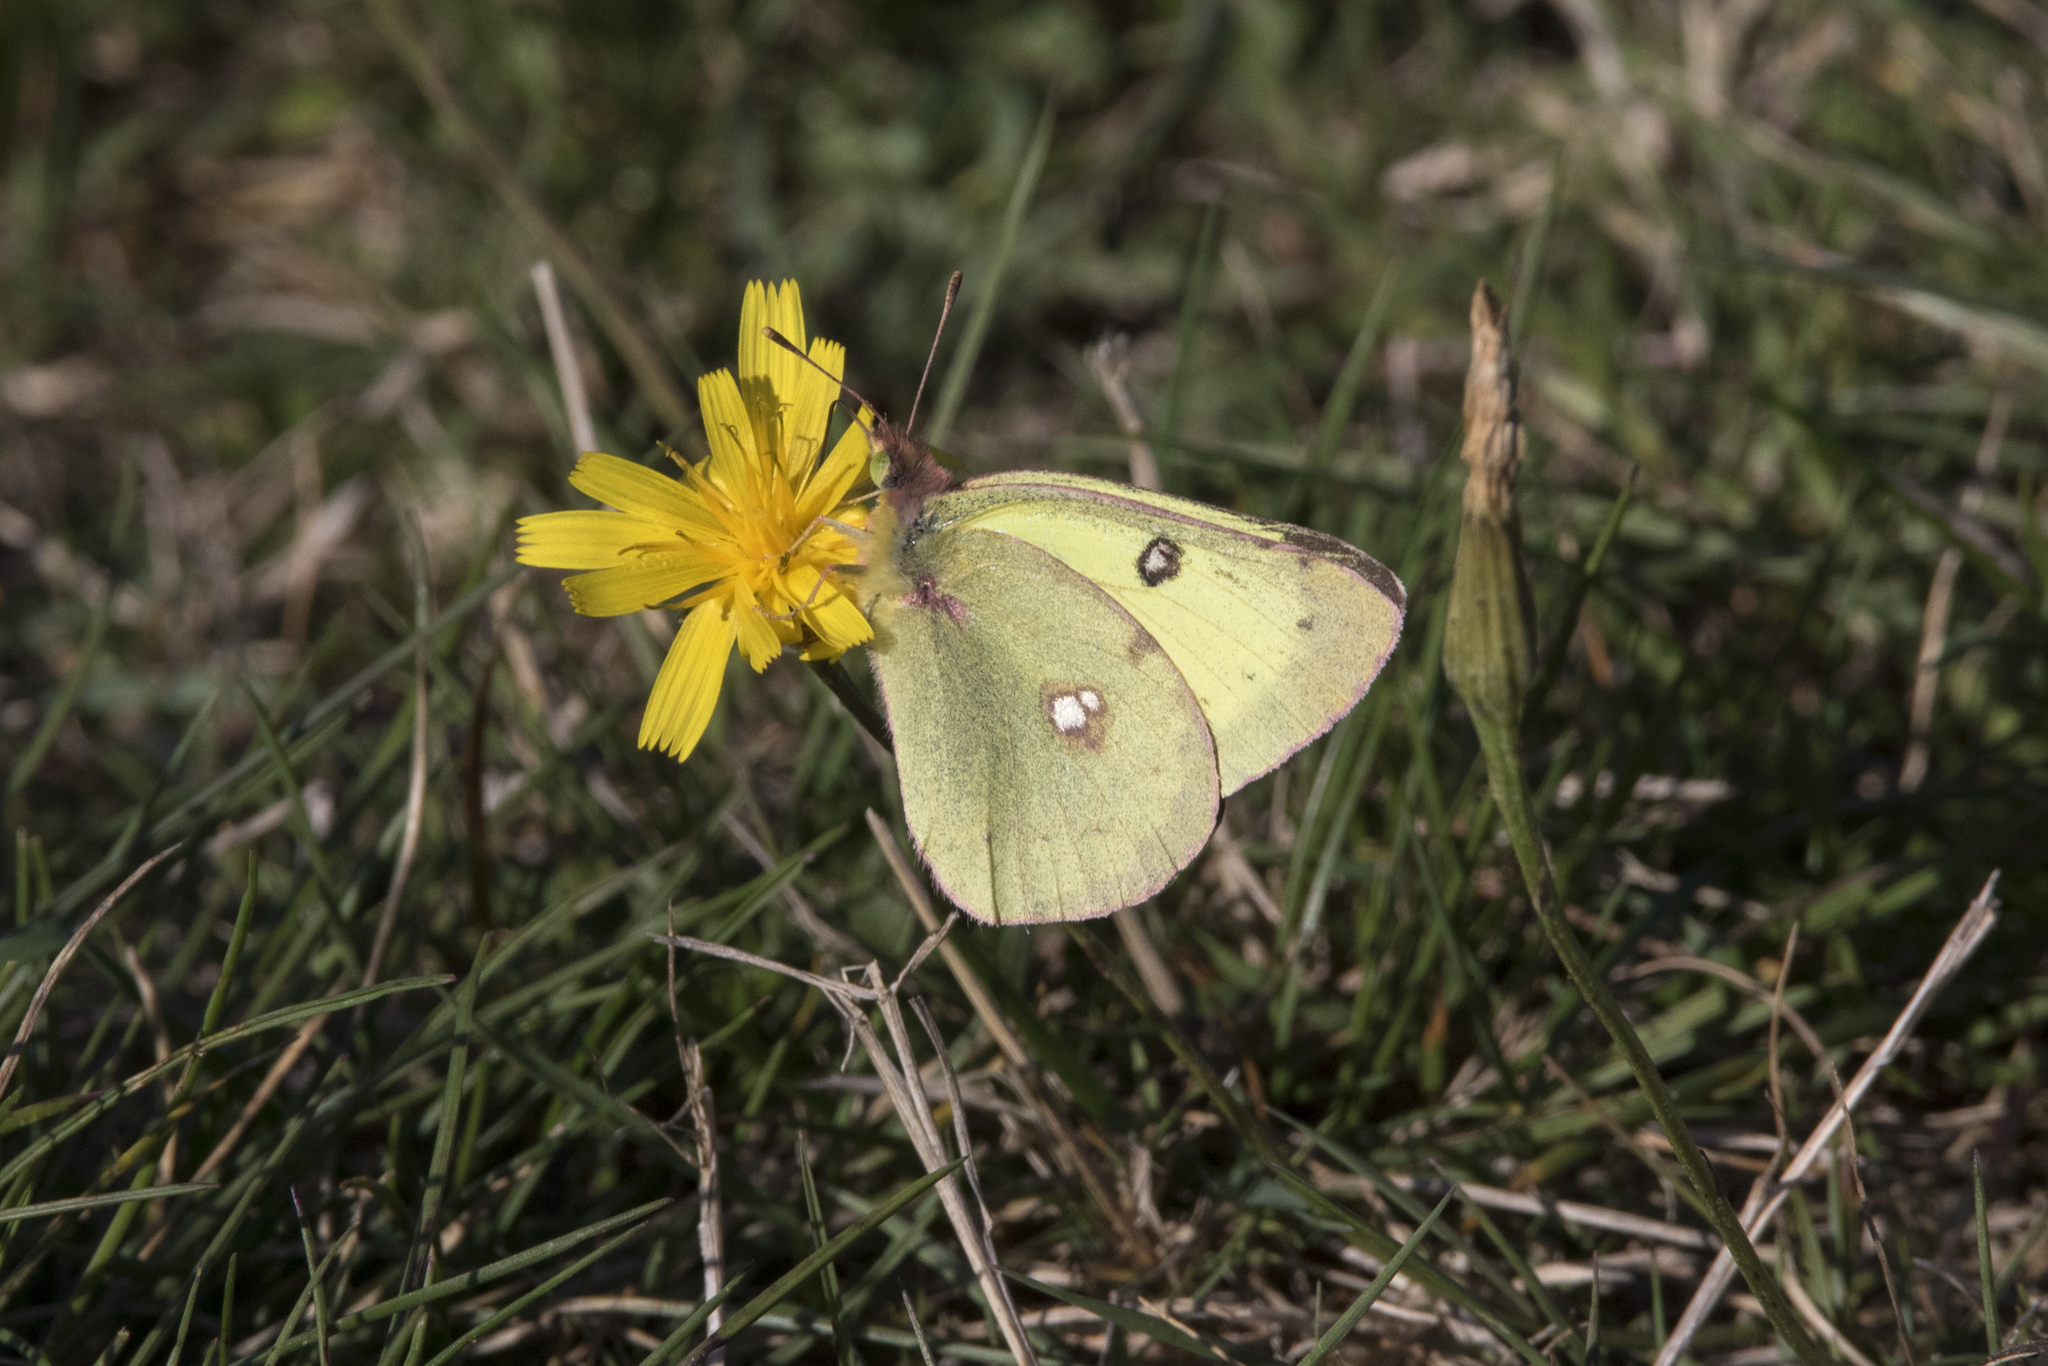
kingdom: Animalia
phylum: Arthropoda
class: Insecta
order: Lepidoptera
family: Pieridae
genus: Colias
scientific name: Colias philodice
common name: Clouded sulphur
